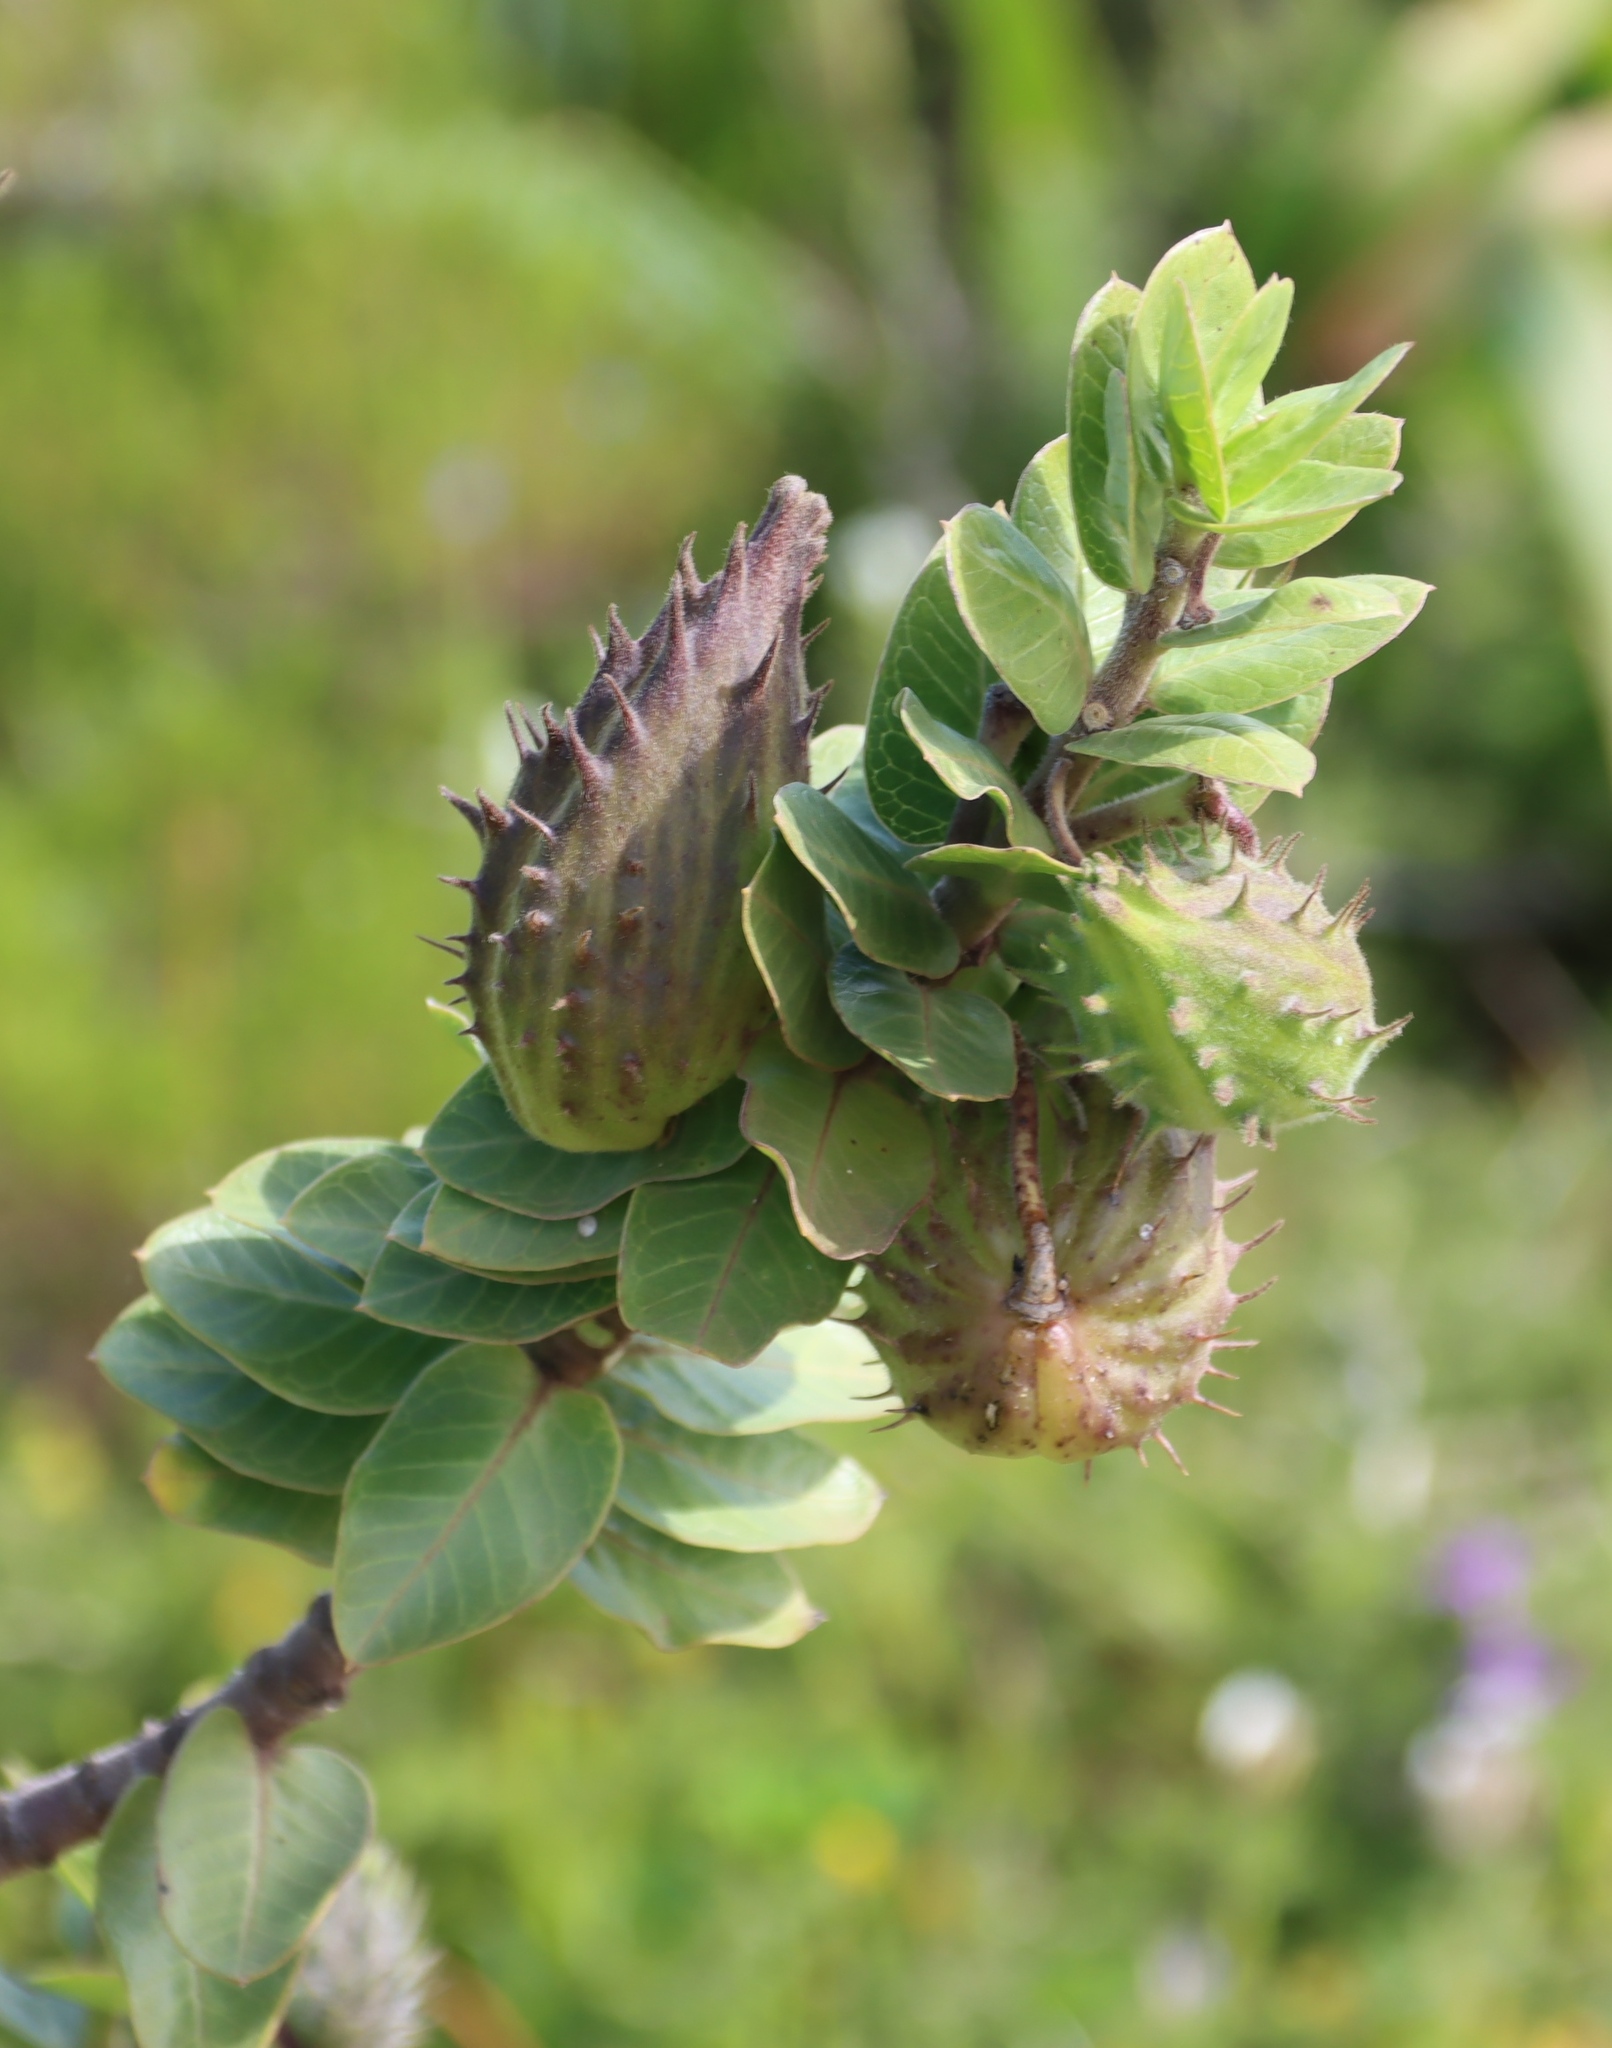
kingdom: Plantae
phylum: Tracheophyta
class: Magnoliopsida
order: Gentianales
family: Apocynaceae
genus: Gomphocarpus
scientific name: Gomphocarpus cancellatus
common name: Wild cotton
